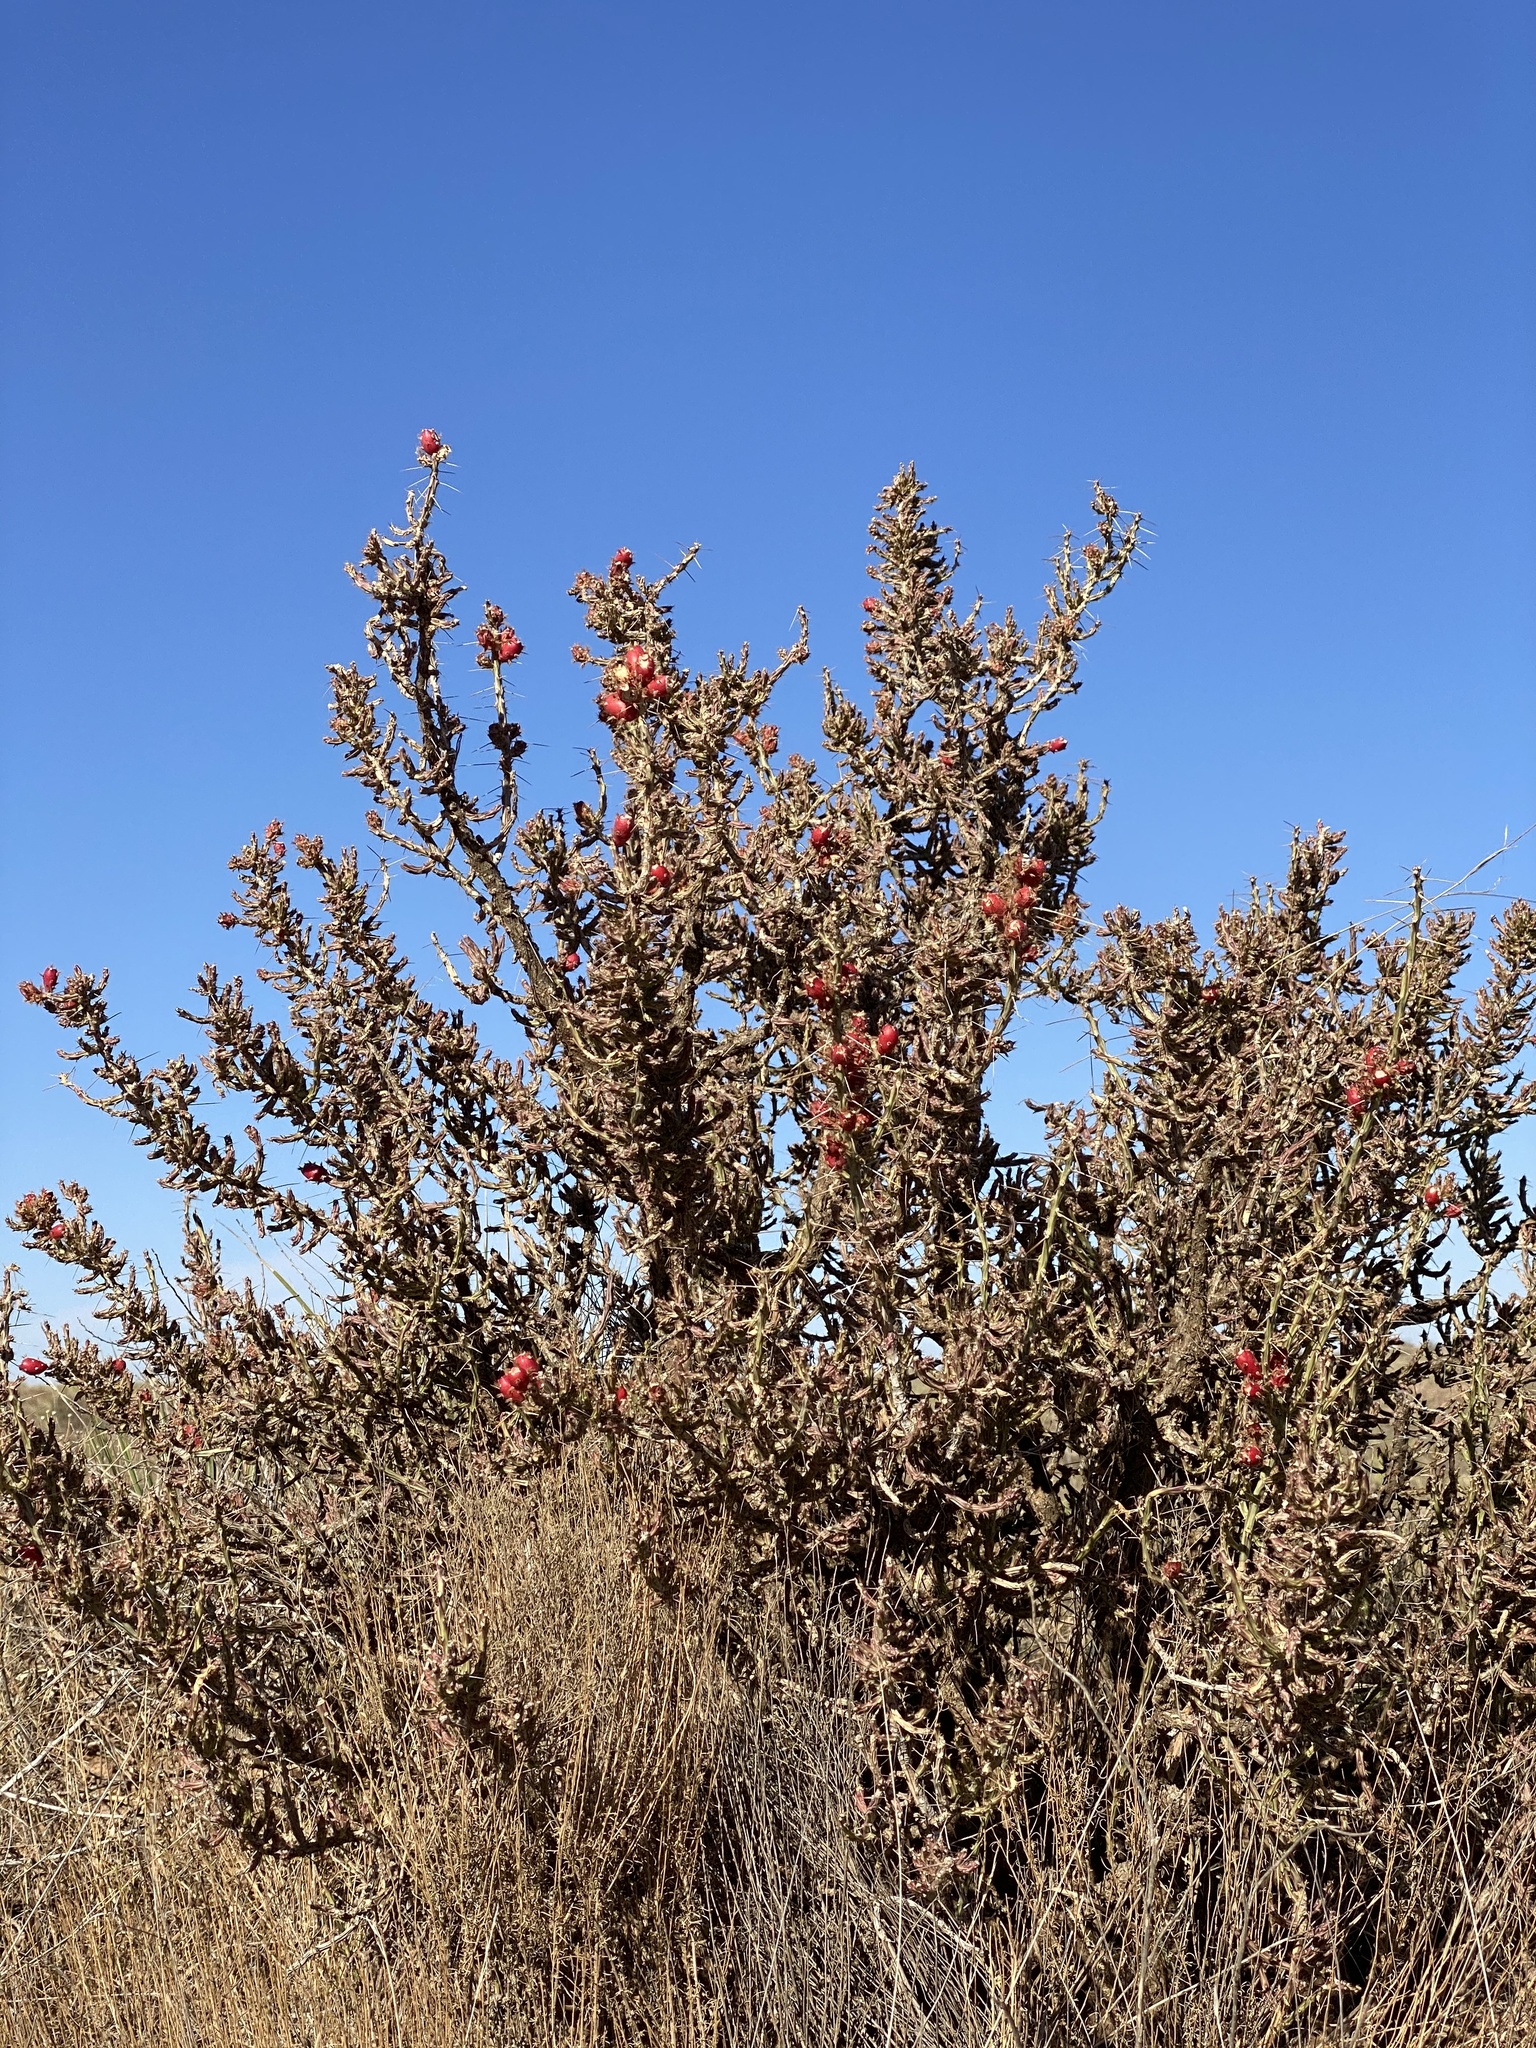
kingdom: Plantae
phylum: Tracheophyta
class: Magnoliopsida
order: Caryophyllales
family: Cactaceae
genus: Cylindropuntia
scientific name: Cylindropuntia leptocaulis
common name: Christmas cactus
